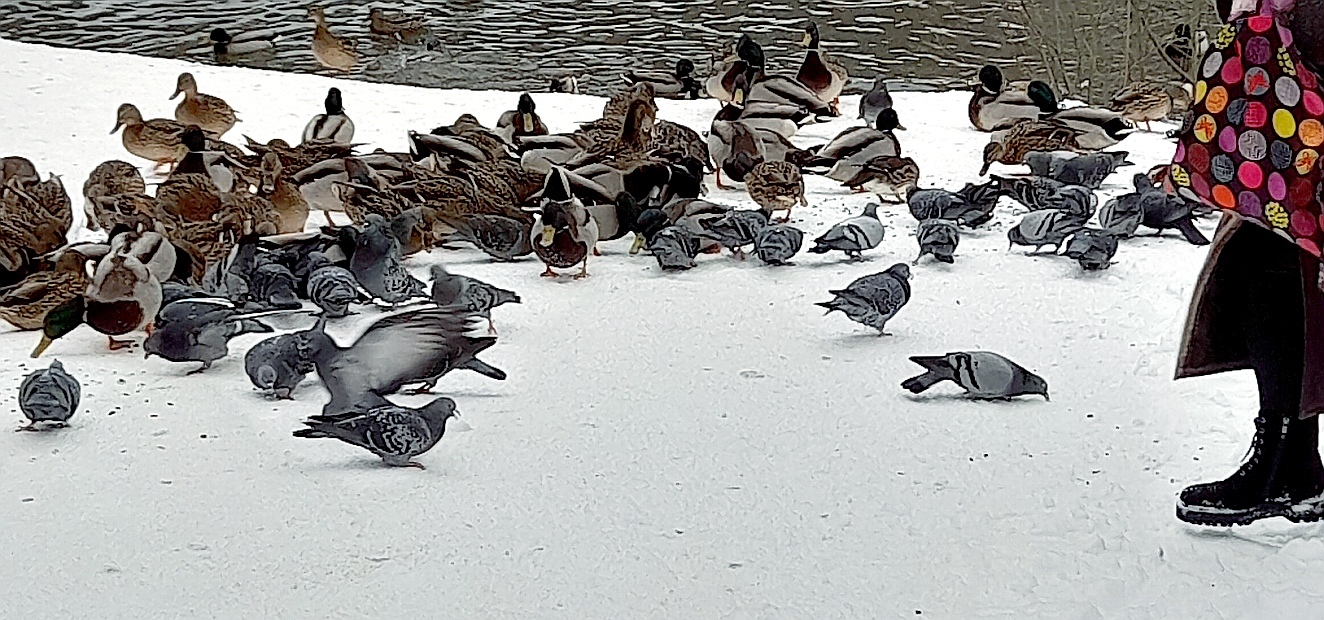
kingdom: Animalia
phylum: Chordata
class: Aves
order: Columbiformes
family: Columbidae
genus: Columba
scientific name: Columba livia
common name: Rock pigeon
